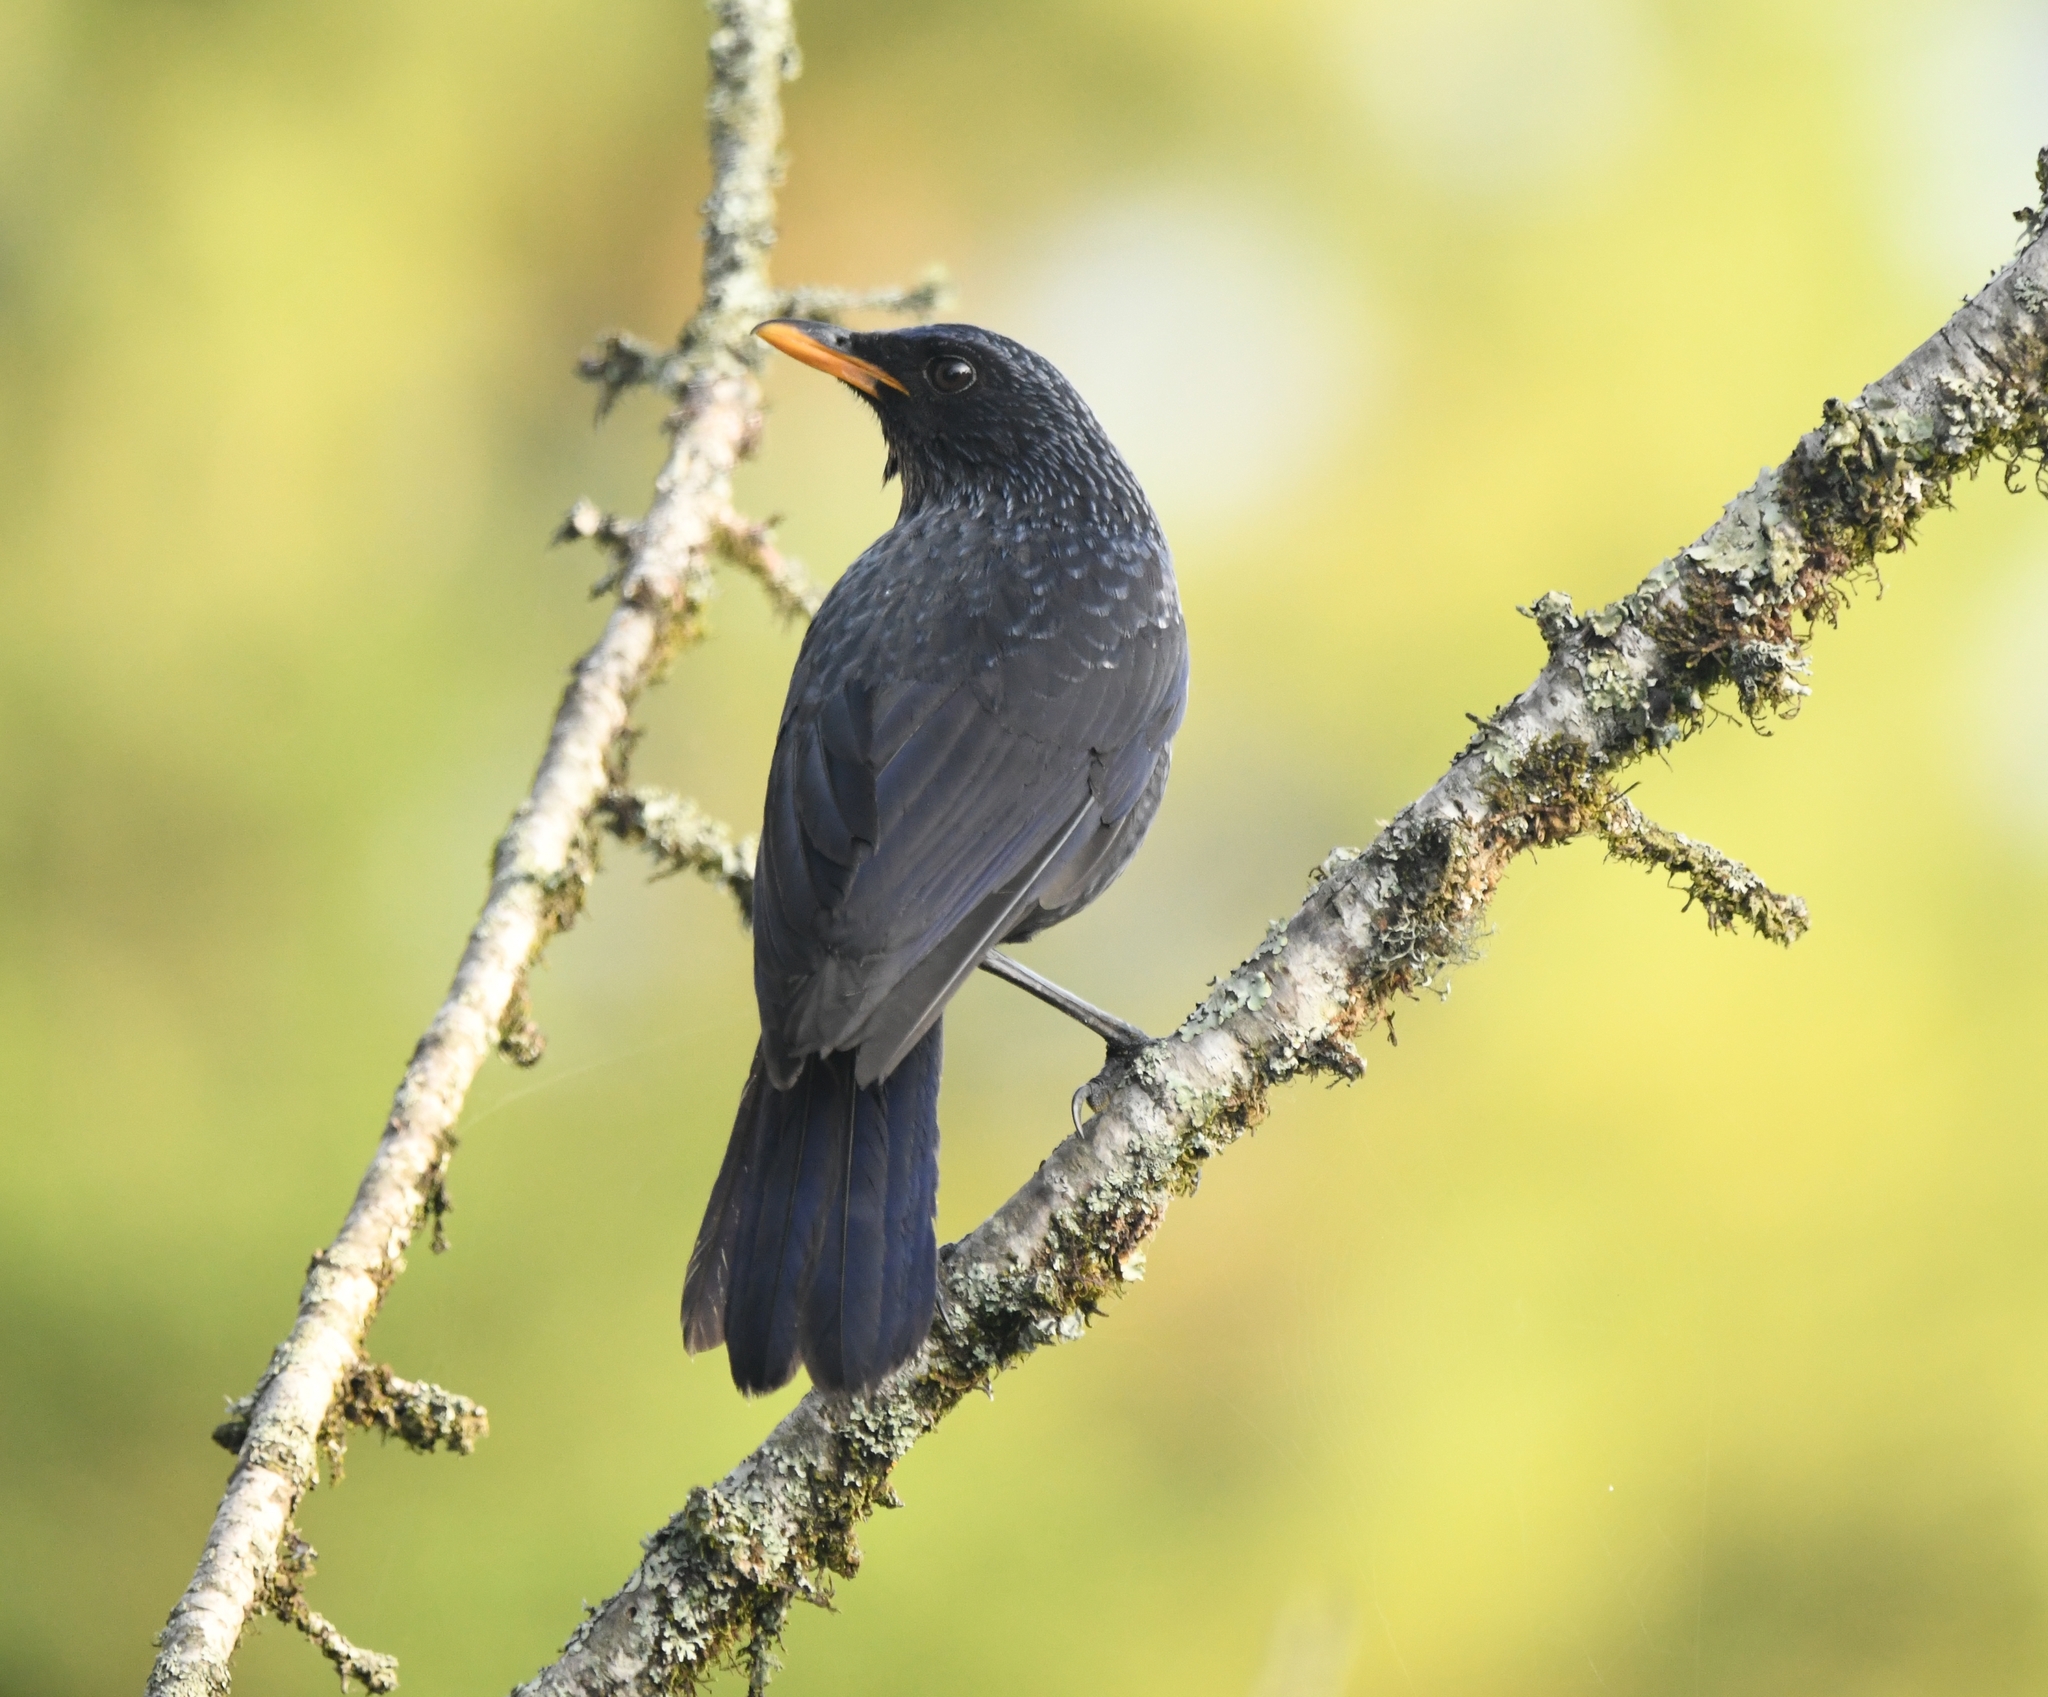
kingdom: Animalia
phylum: Chordata
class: Aves
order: Passeriformes
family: Muscicapidae
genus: Myophonus
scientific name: Myophonus caeruleus
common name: Blue whistling-thrush
